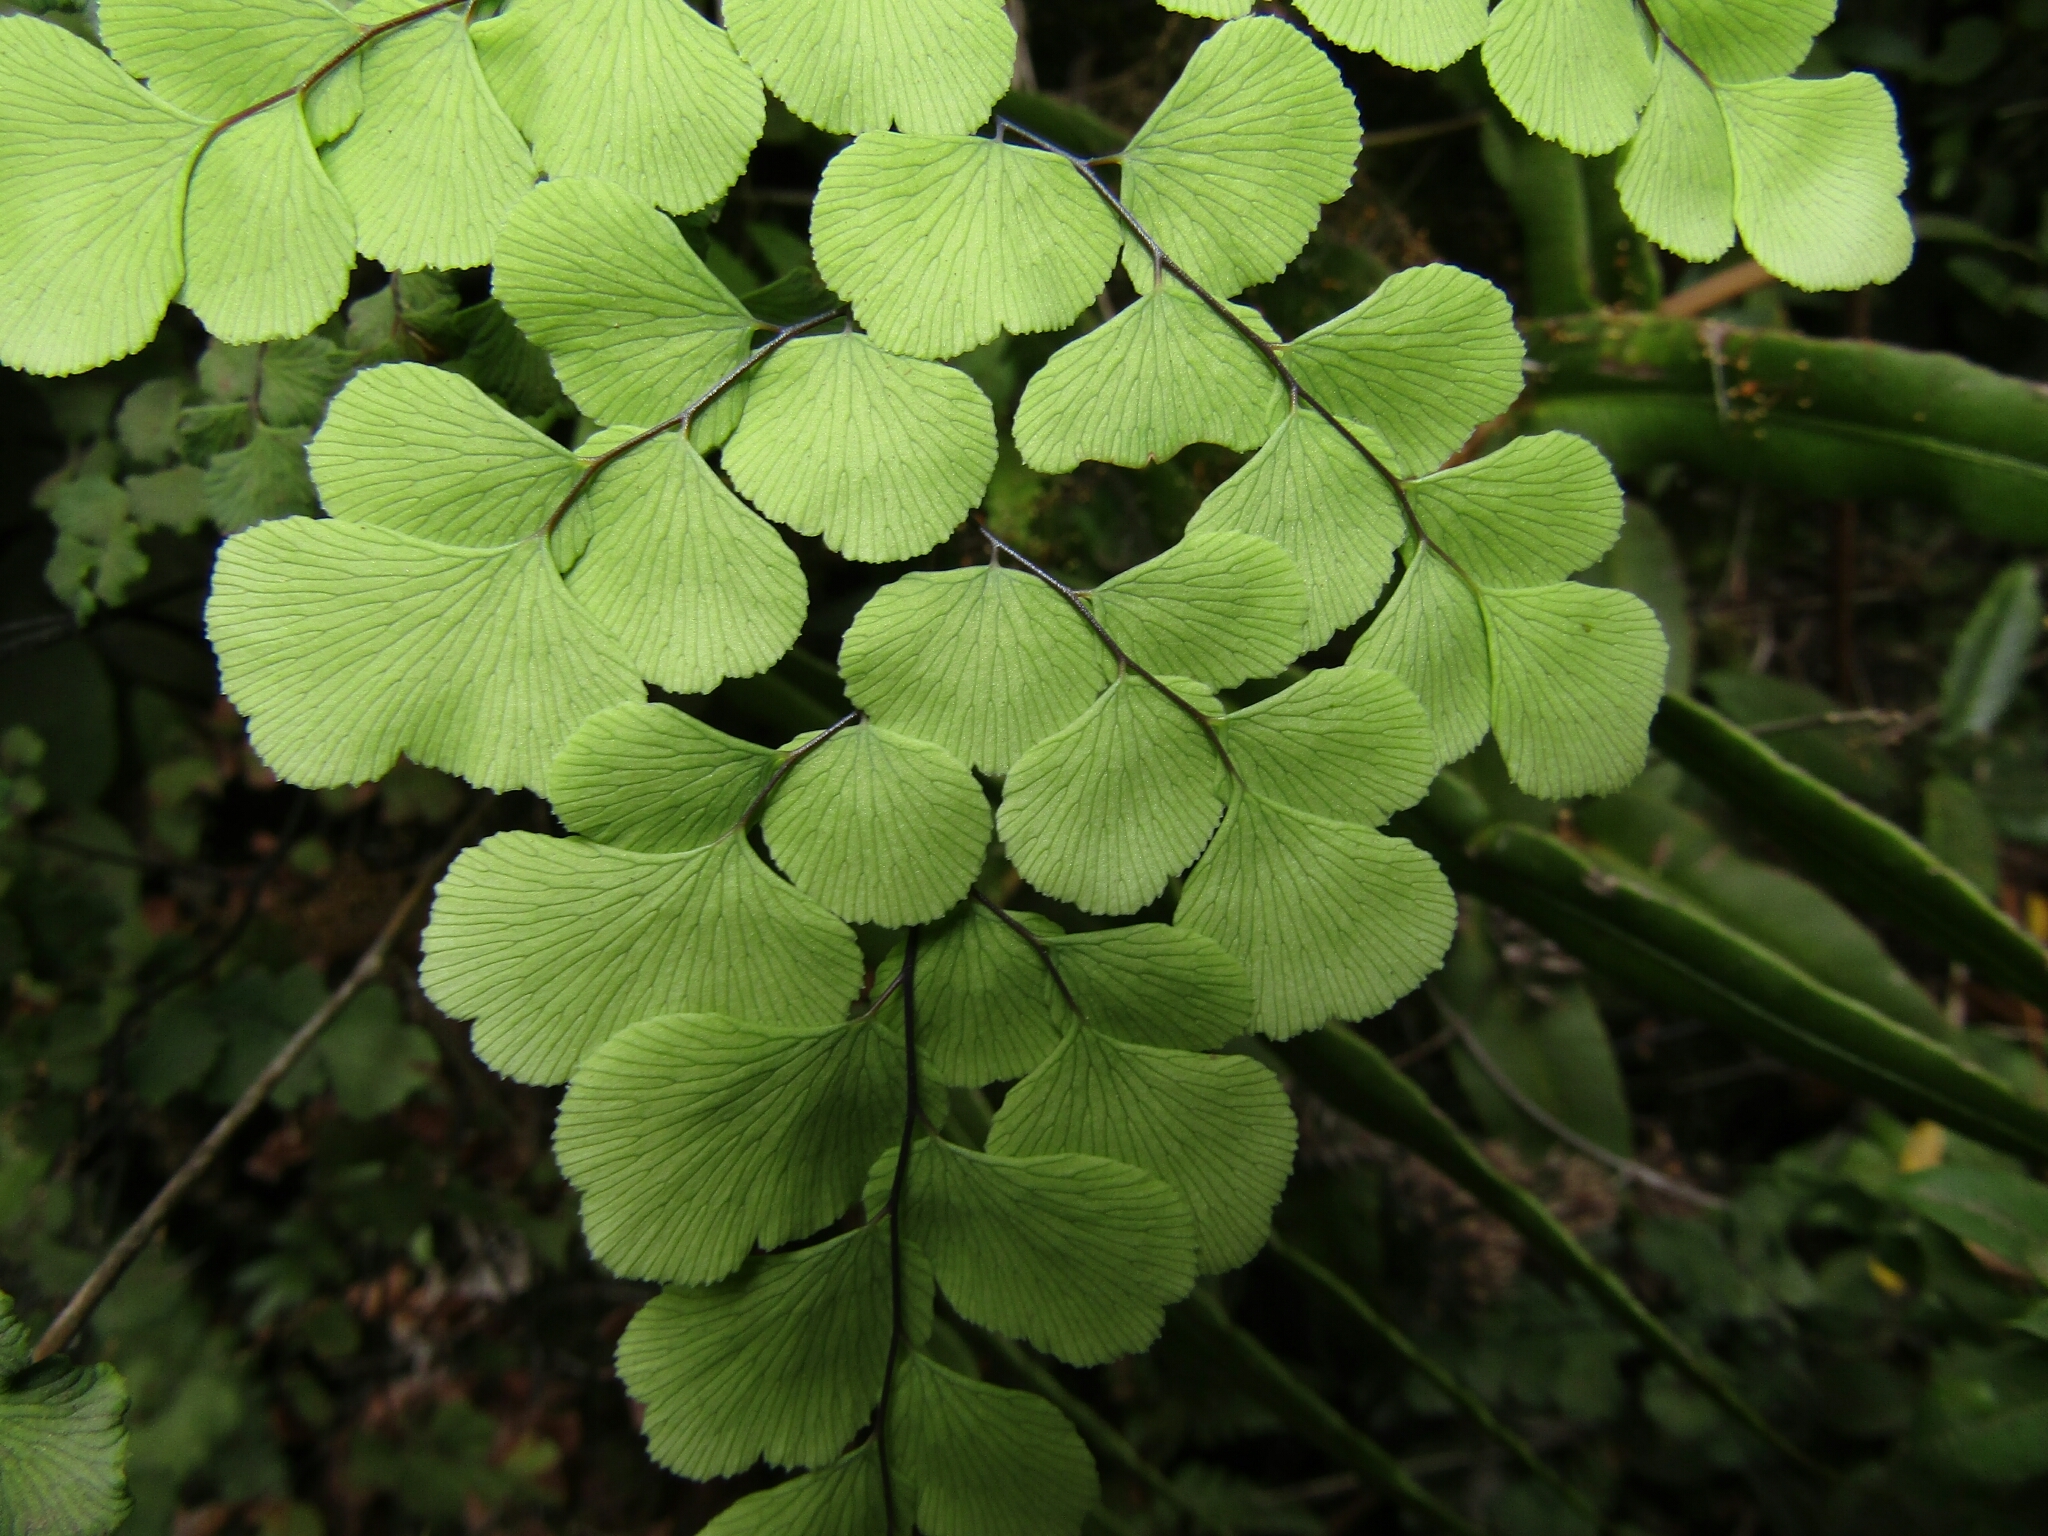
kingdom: Plantae
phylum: Tracheophyta
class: Polypodiopsida
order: Polypodiales
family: Pteridaceae
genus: Adiantum
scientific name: Adiantum chilense
